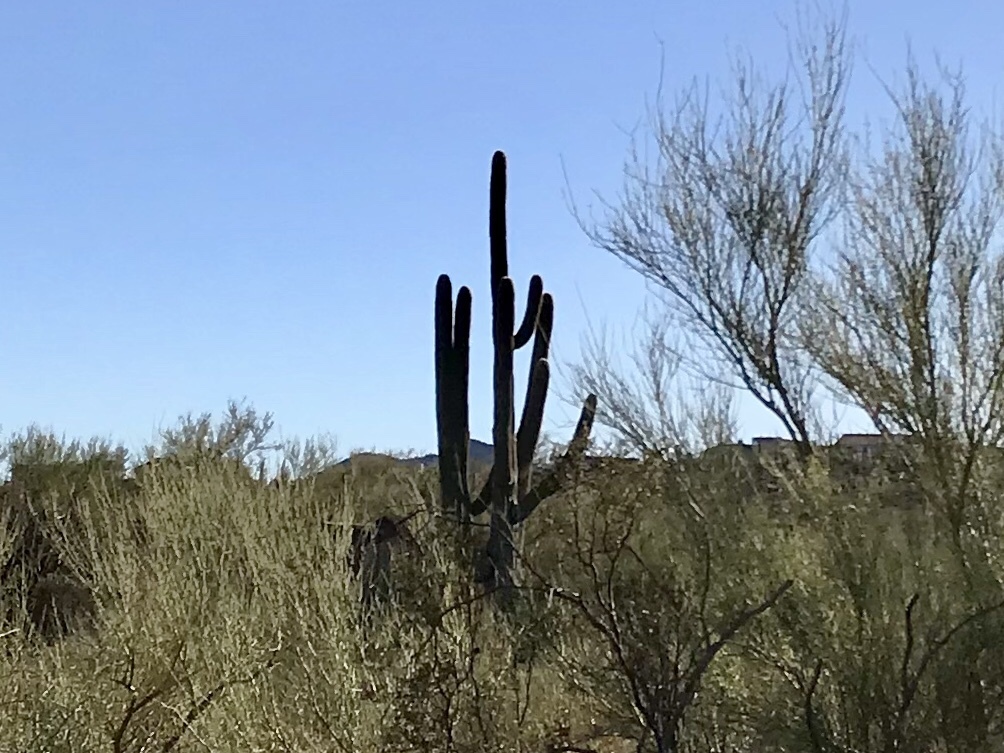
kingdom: Plantae
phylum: Tracheophyta
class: Magnoliopsida
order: Caryophyllales
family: Cactaceae
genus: Carnegiea
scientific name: Carnegiea gigantea
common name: Saguaro
